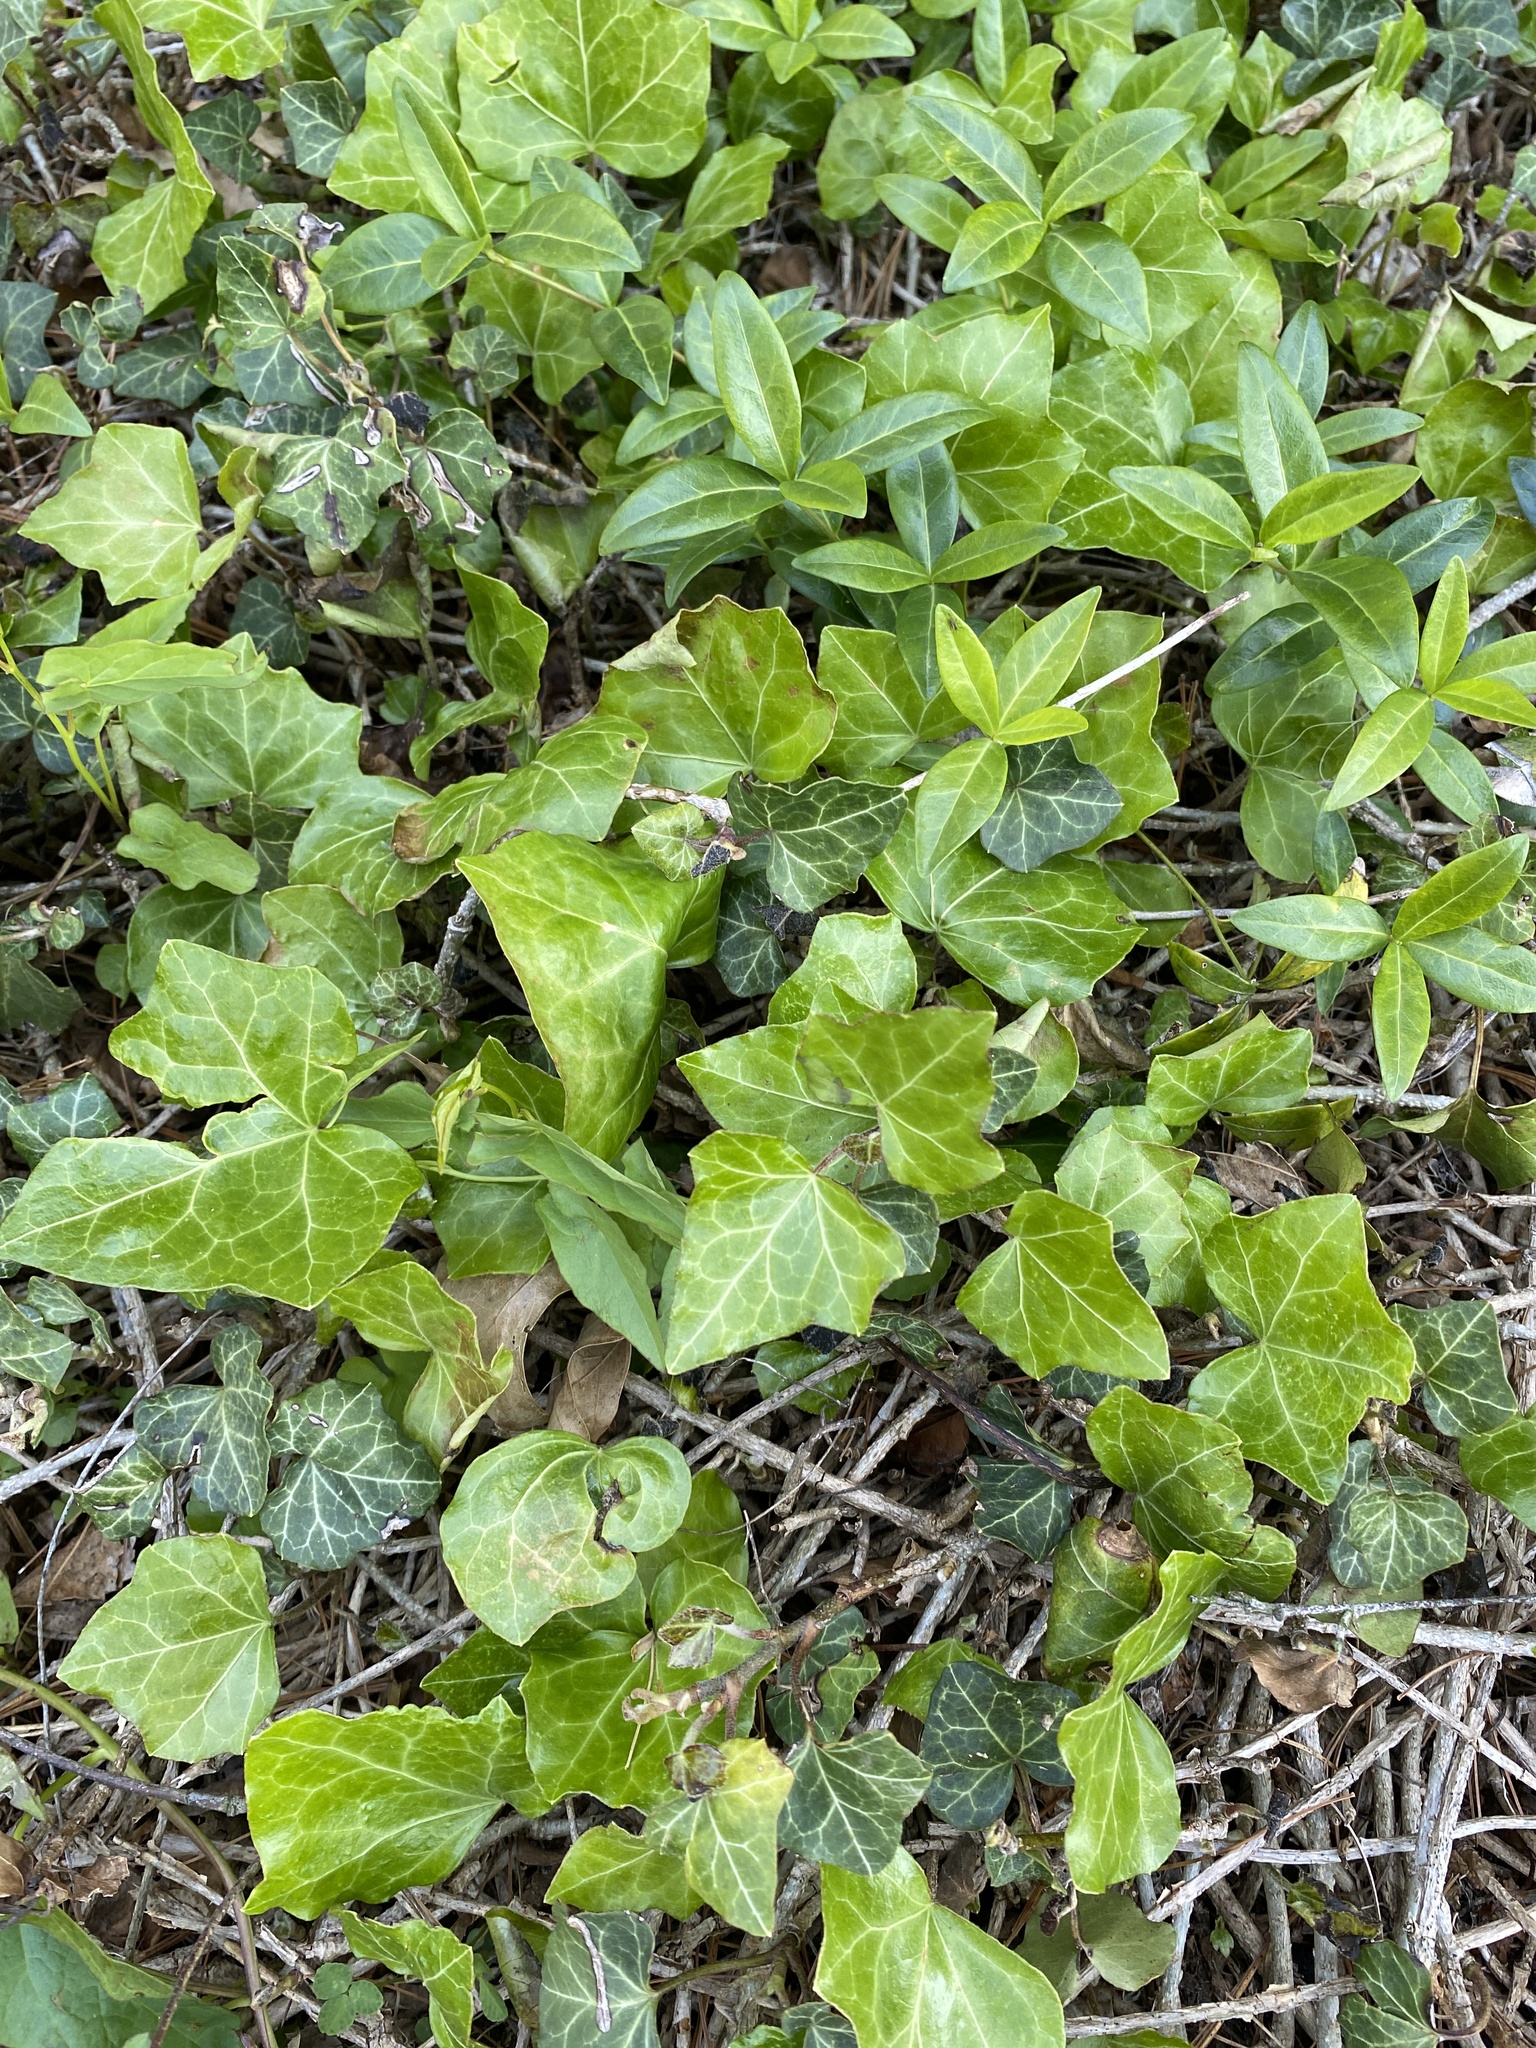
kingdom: Plantae
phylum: Tracheophyta
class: Magnoliopsida
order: Apiales
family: Araliaceae
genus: Hedera
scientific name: Hedera helix
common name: Ivy
